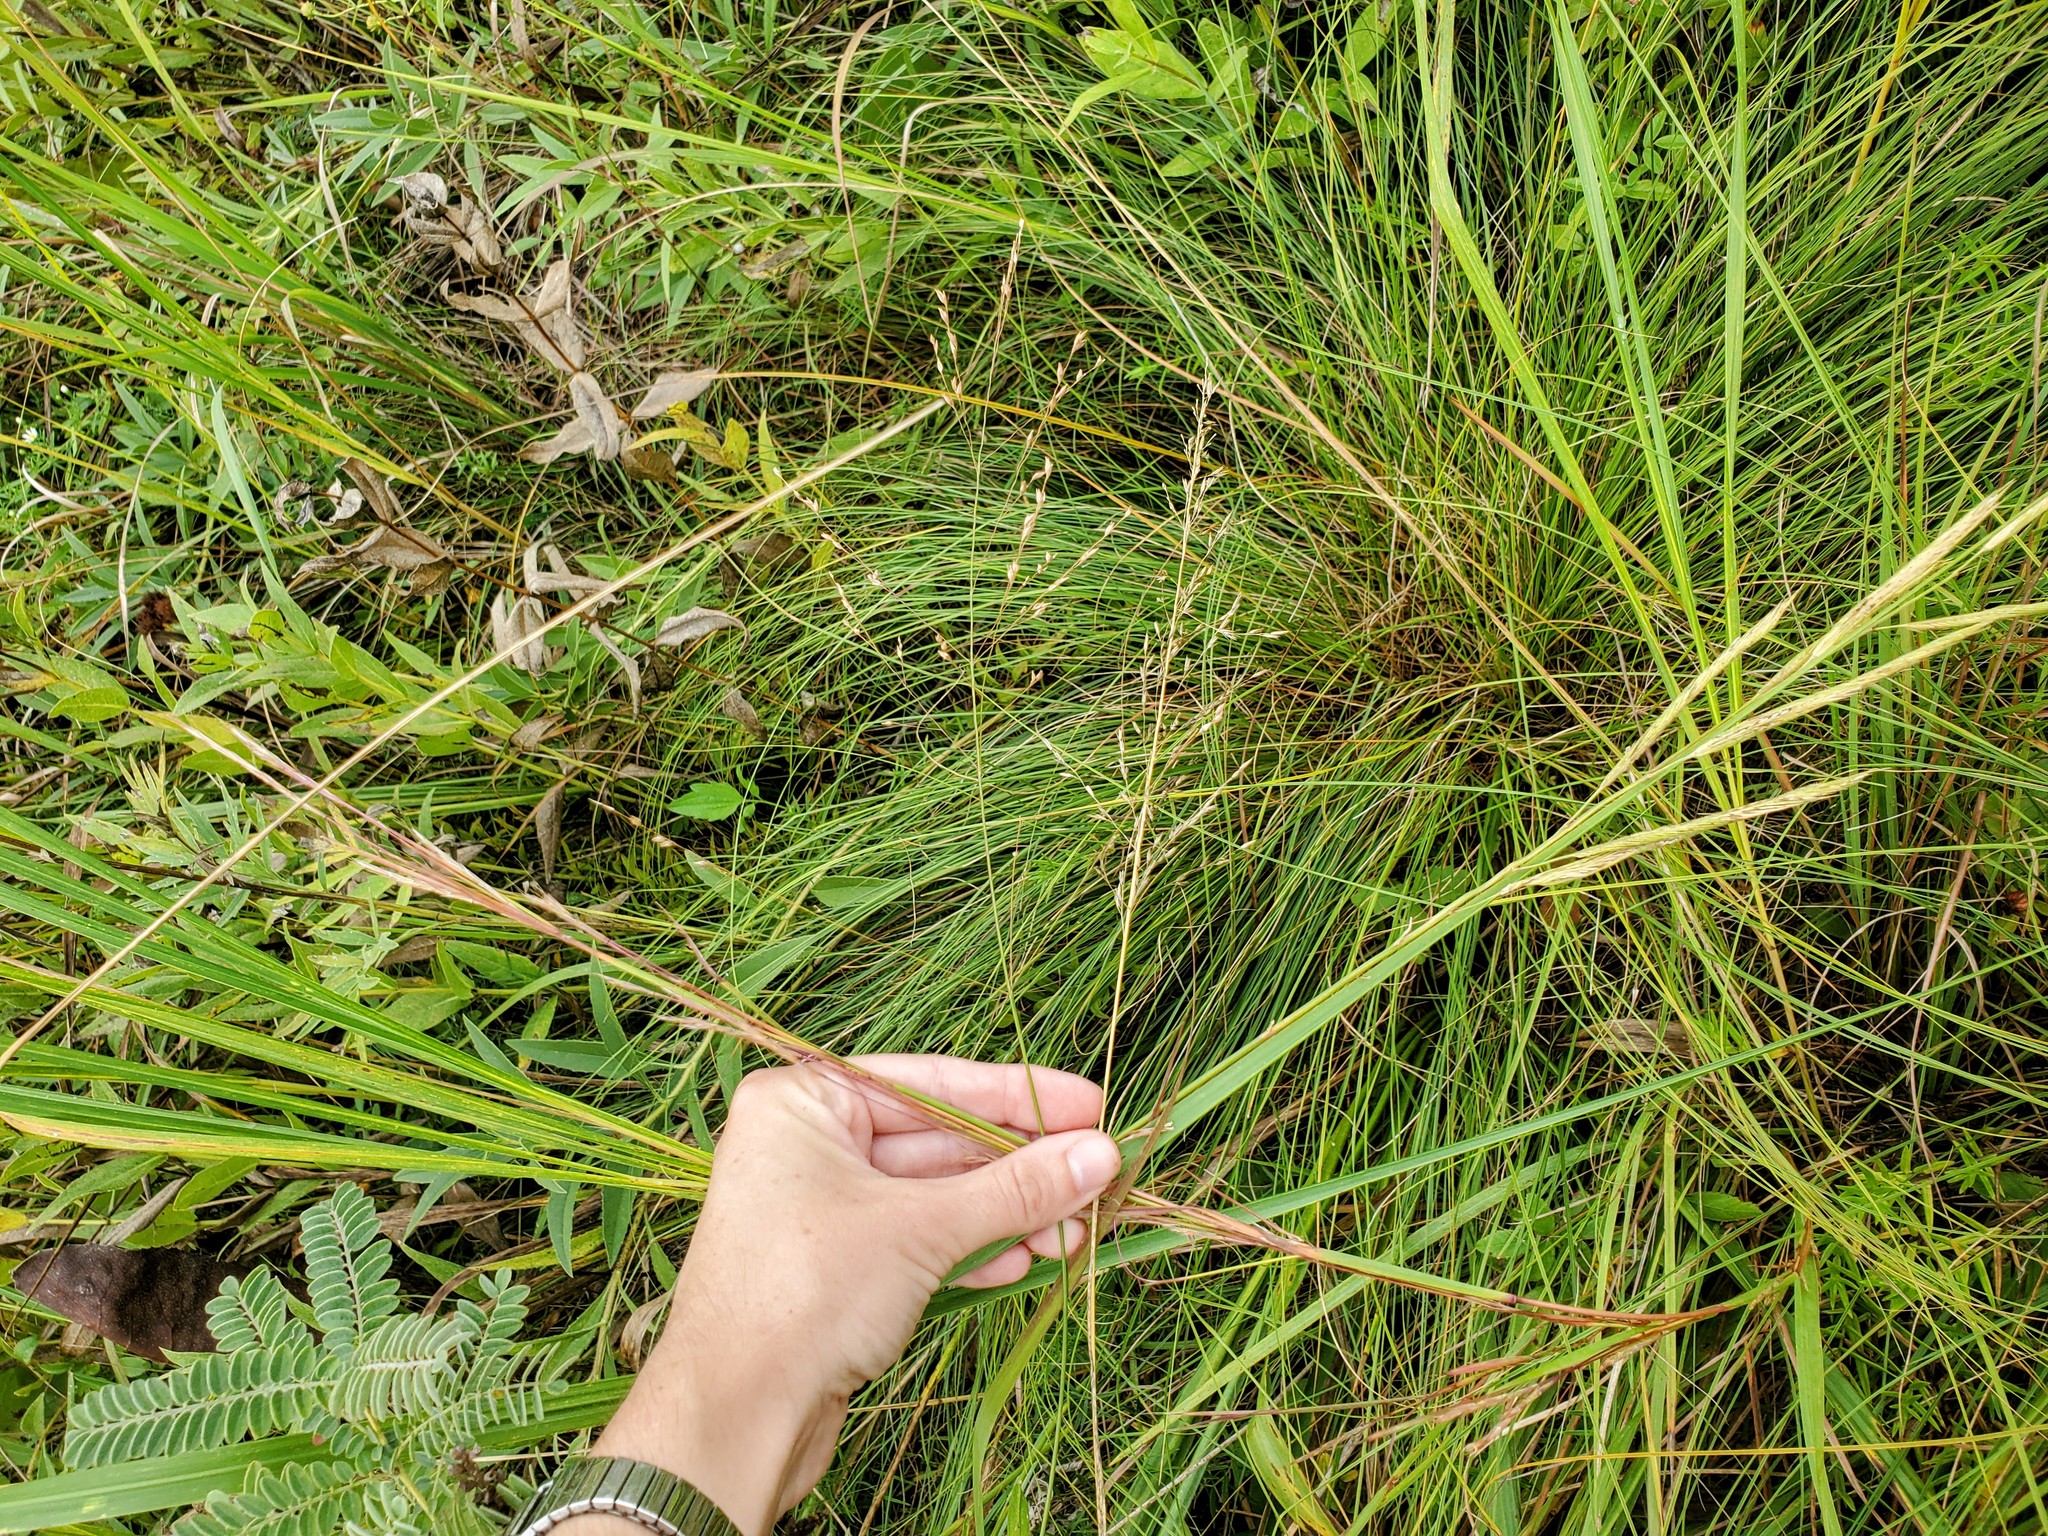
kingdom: Plantae
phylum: Tracheophyta
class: Liliopsida
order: Poales
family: Poaceae
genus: Sporobolus
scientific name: Sporobolus michauxianus
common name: Freshwater cordgrass
